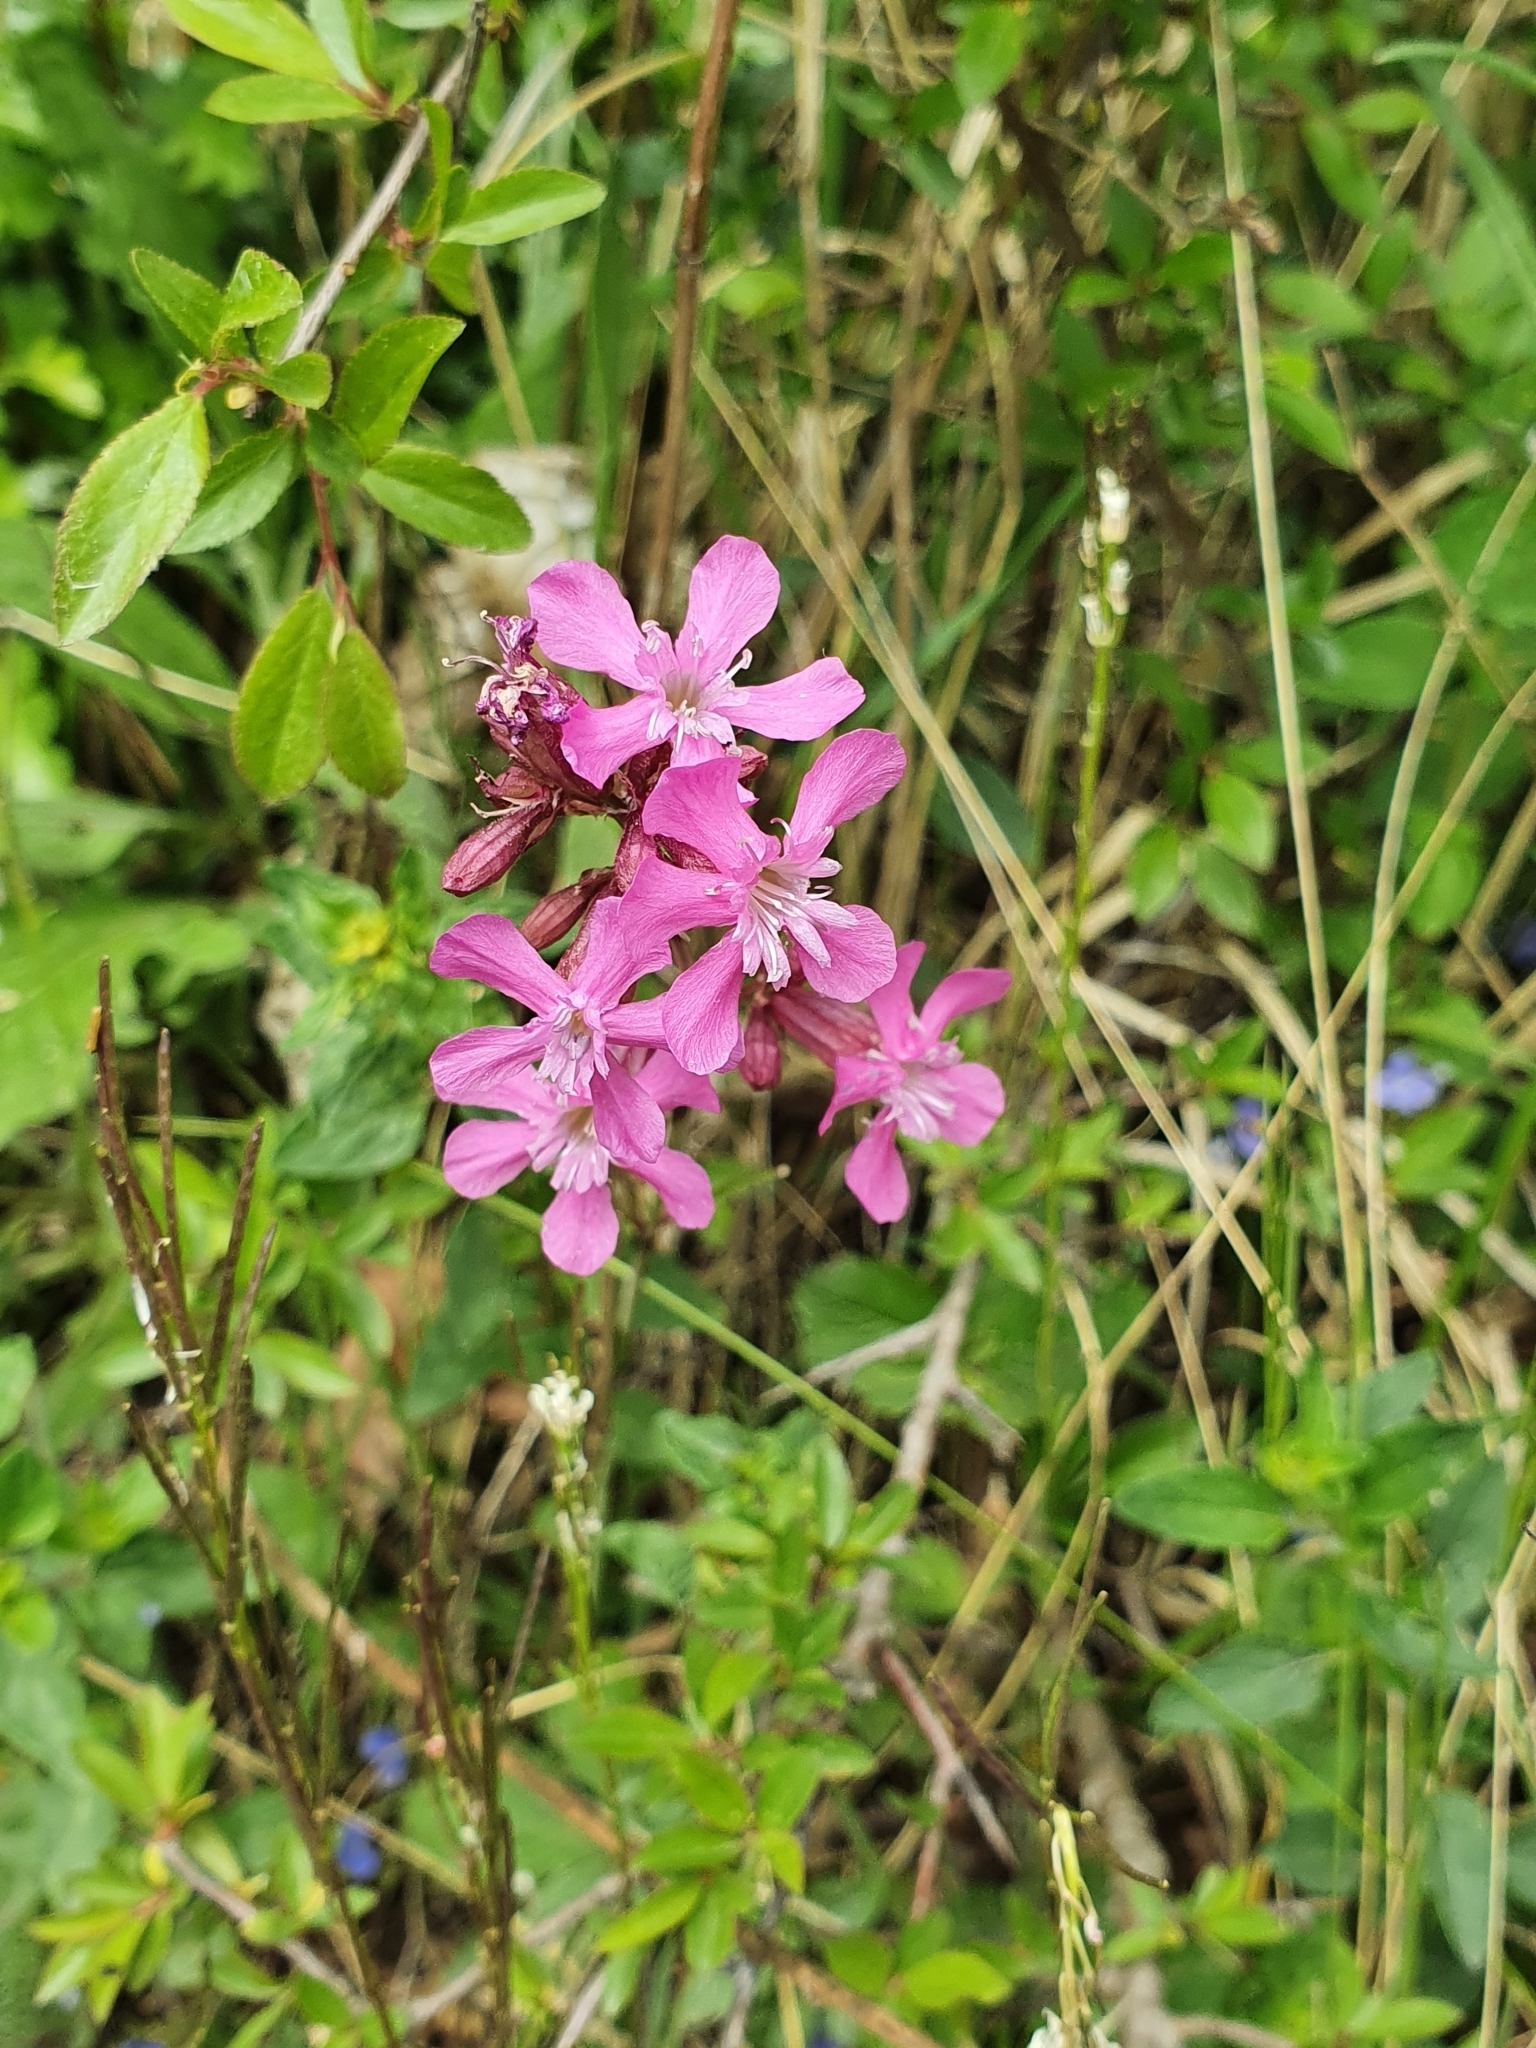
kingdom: Plantae
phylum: Tracheophyta
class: Magnoliopsida
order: Caryophyllales
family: Caryophyllaceae
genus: Viscaria
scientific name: Viscaria vulgaris
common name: Clammy campion
